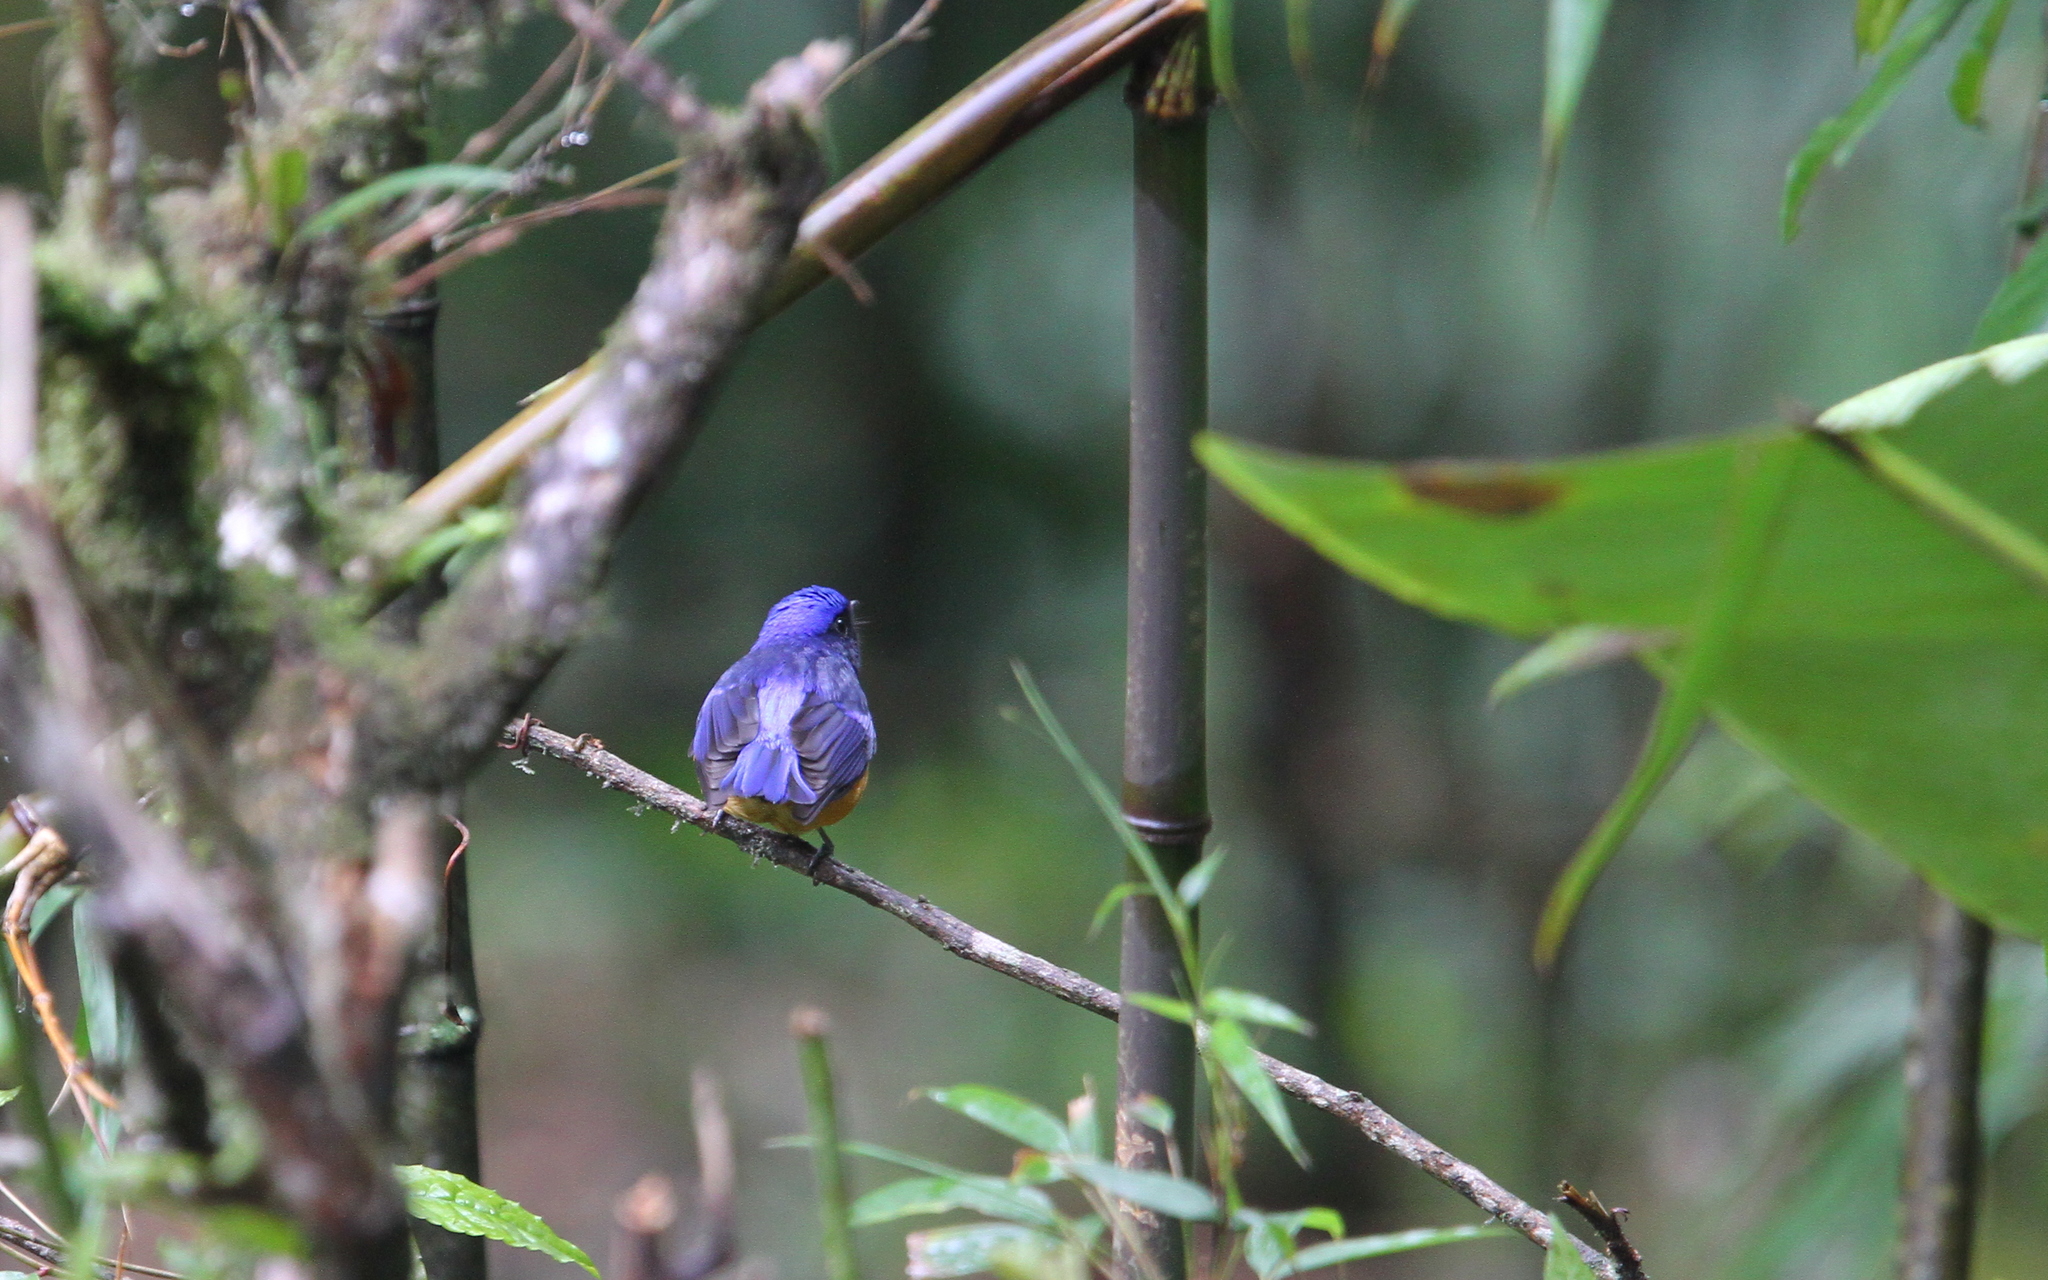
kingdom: Animalia
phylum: Chordata
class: Aves
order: Passeriformes
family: Muscicapidae
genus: Niltava
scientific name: Niltava sundara
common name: Rufous-bellied niltava
